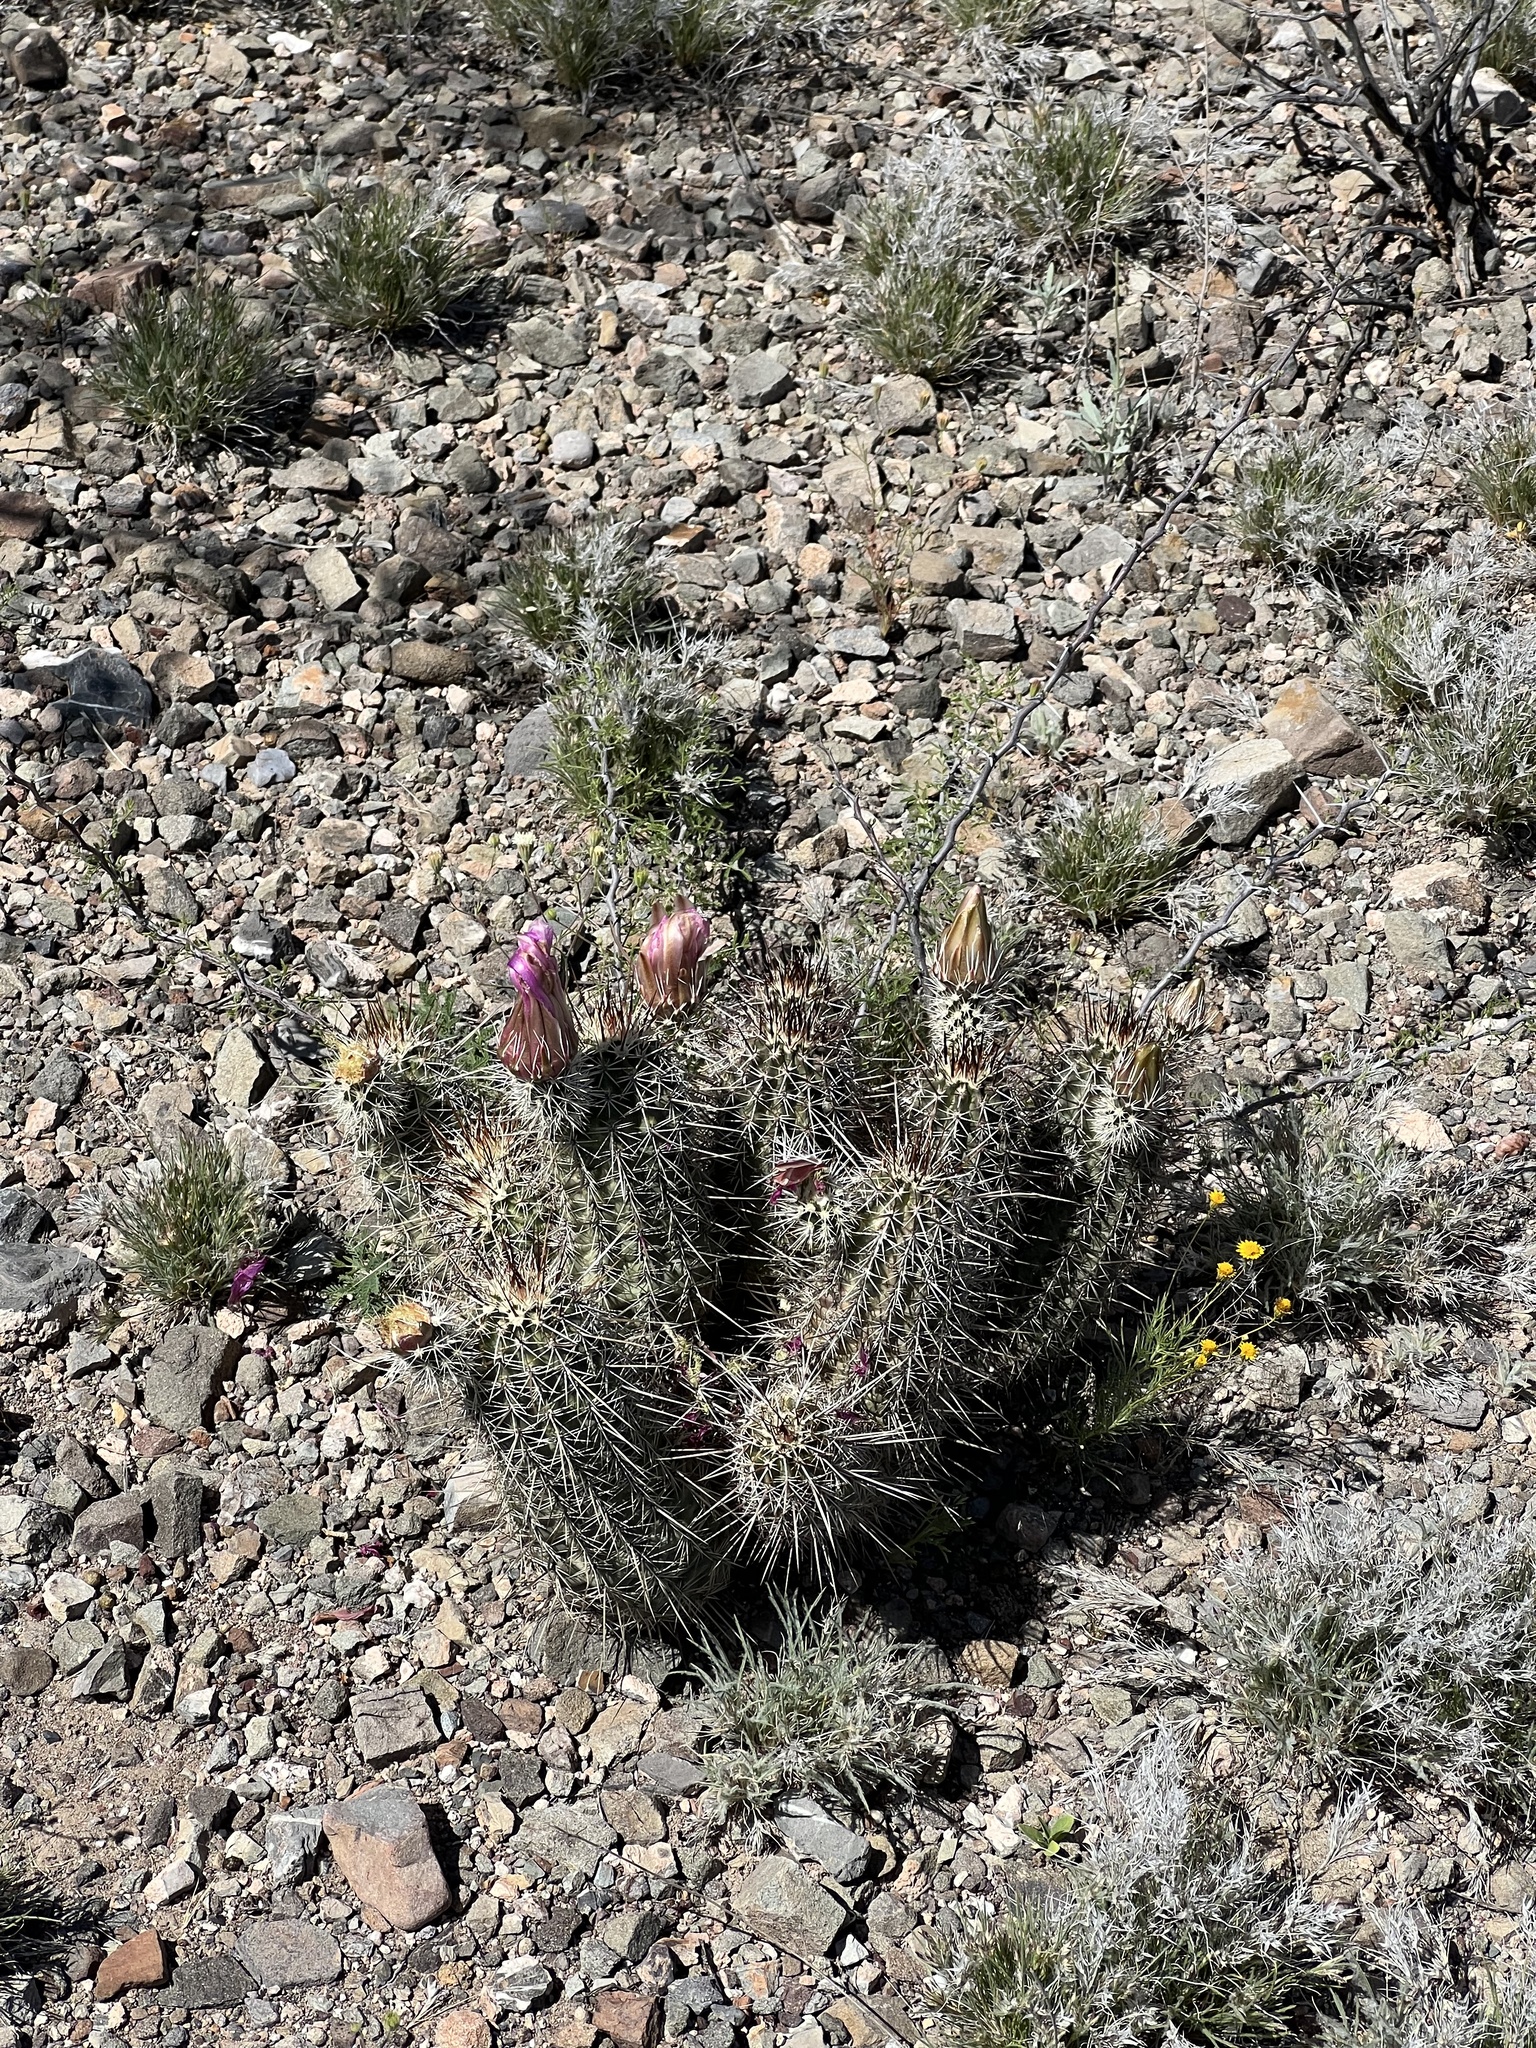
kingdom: Plantae
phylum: Tracheophyta
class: Magnoliopsida
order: Caryophyllales
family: Cactaceae
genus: Echinocereus
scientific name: Echinocereus fasciculatus
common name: Bundle hedgehog
